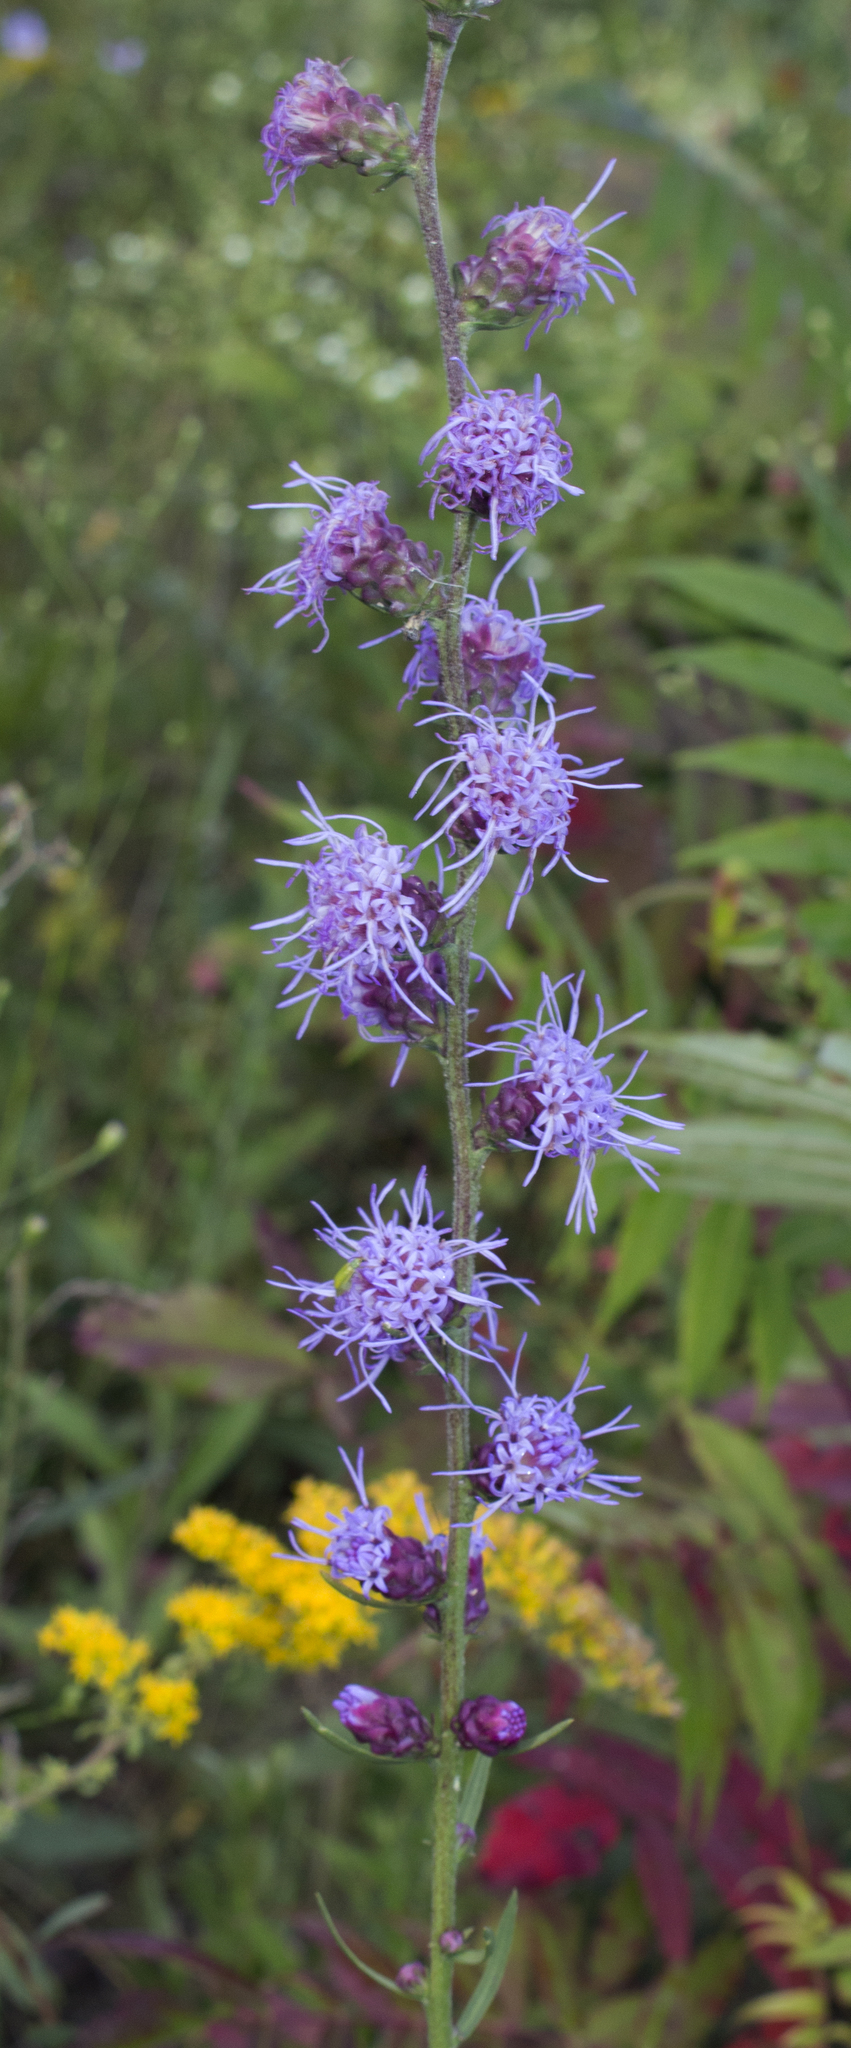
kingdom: Plantae
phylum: Tracheophyta
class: Magnoliopsida
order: Asterales
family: Asteraceae
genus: Liatris
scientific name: Liatris aspera
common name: Lacerate blazing-star
